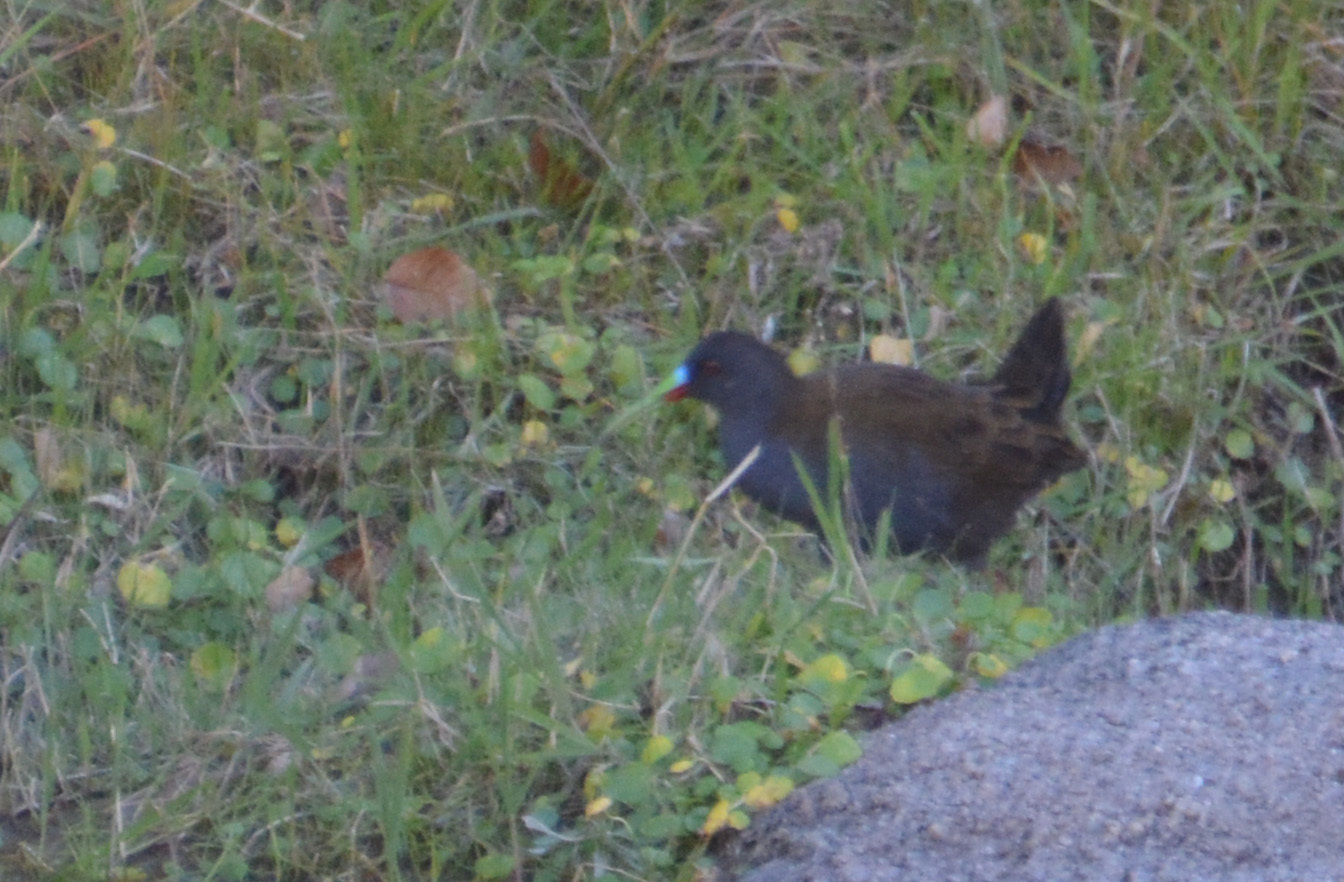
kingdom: Animalia
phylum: Chordata
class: Aves
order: Gruiformes
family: Rallidae
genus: Pardirallus
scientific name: Pardirallus sanguinolentus
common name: Plumbeous rail
